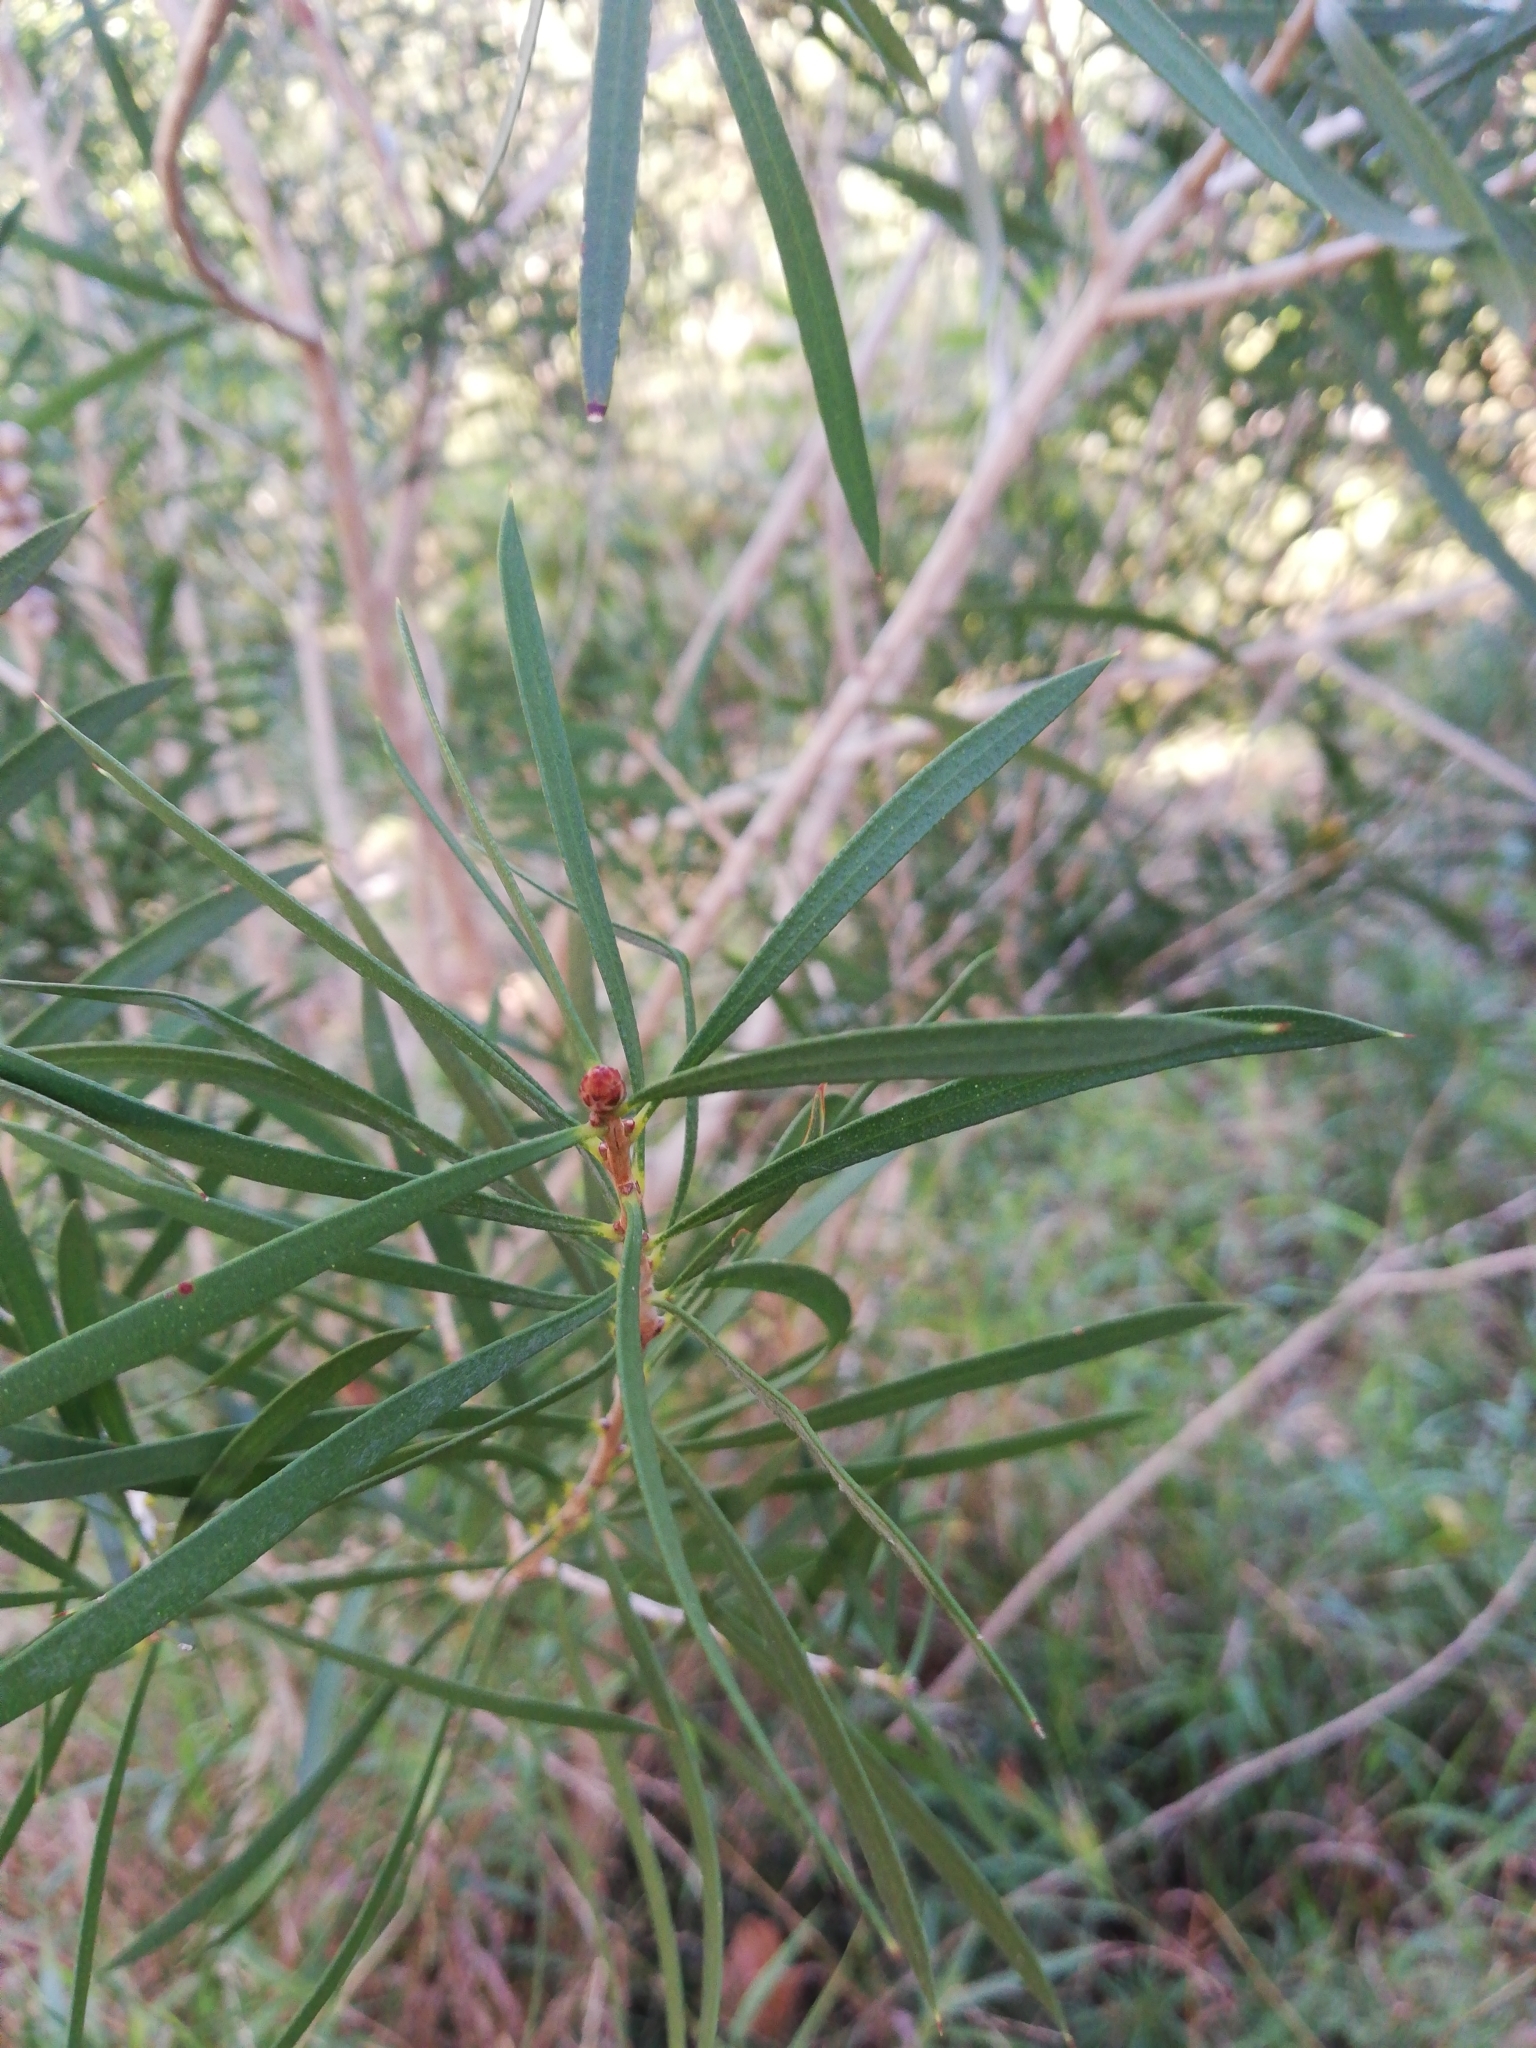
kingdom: Plantae
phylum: Tracheophyta
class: Magnoliopsida
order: Myrtales
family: Myrtaceae
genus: Callistemon
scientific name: Callistemon linearis
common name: Narrow-leaf bottlebrush
